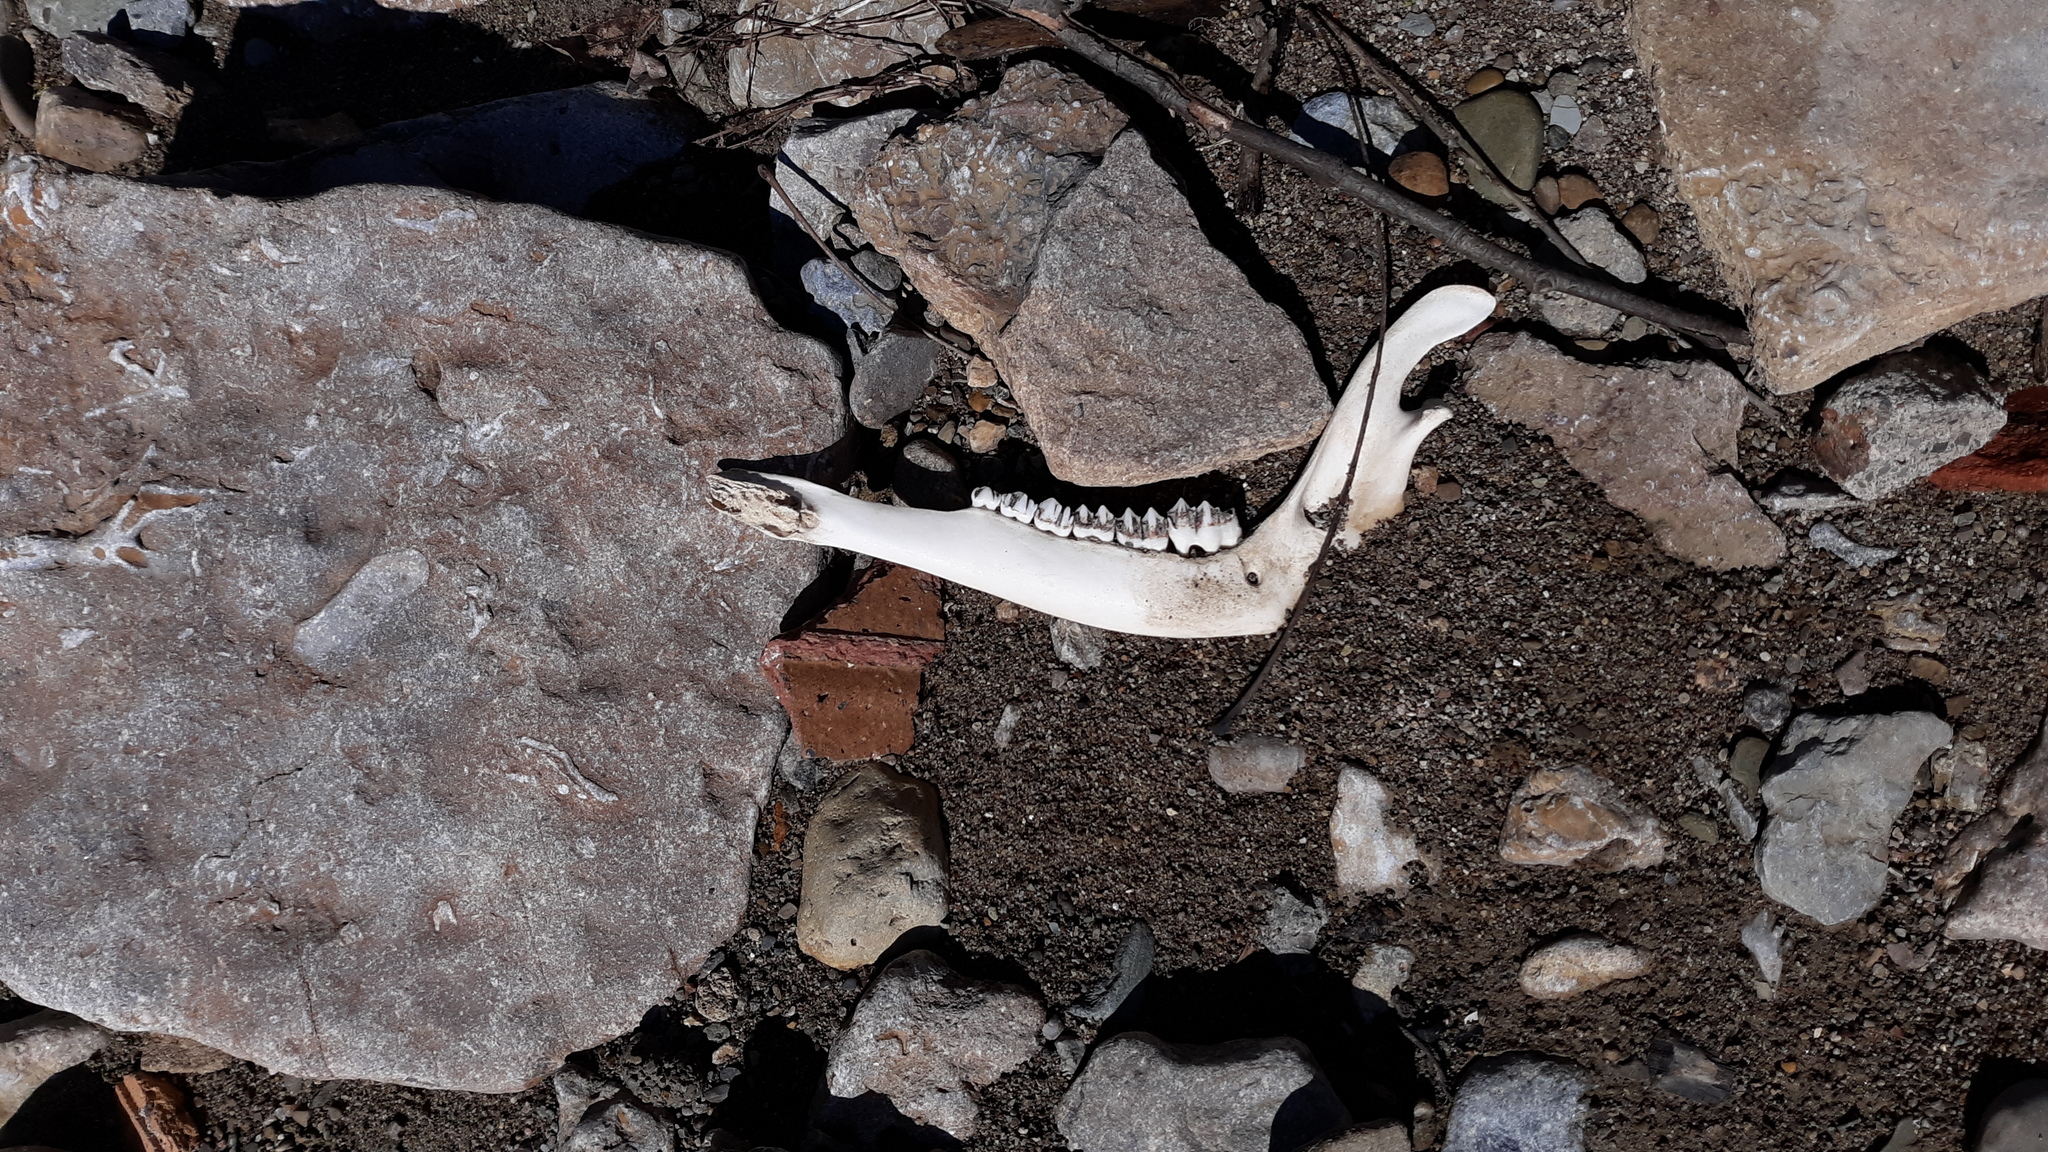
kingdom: Animalia
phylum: Chordata
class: Mammalia
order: Artiodactyla
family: Cervidae
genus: Odocoileus
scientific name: Odocoileus virginianus
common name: White-tailed deer
